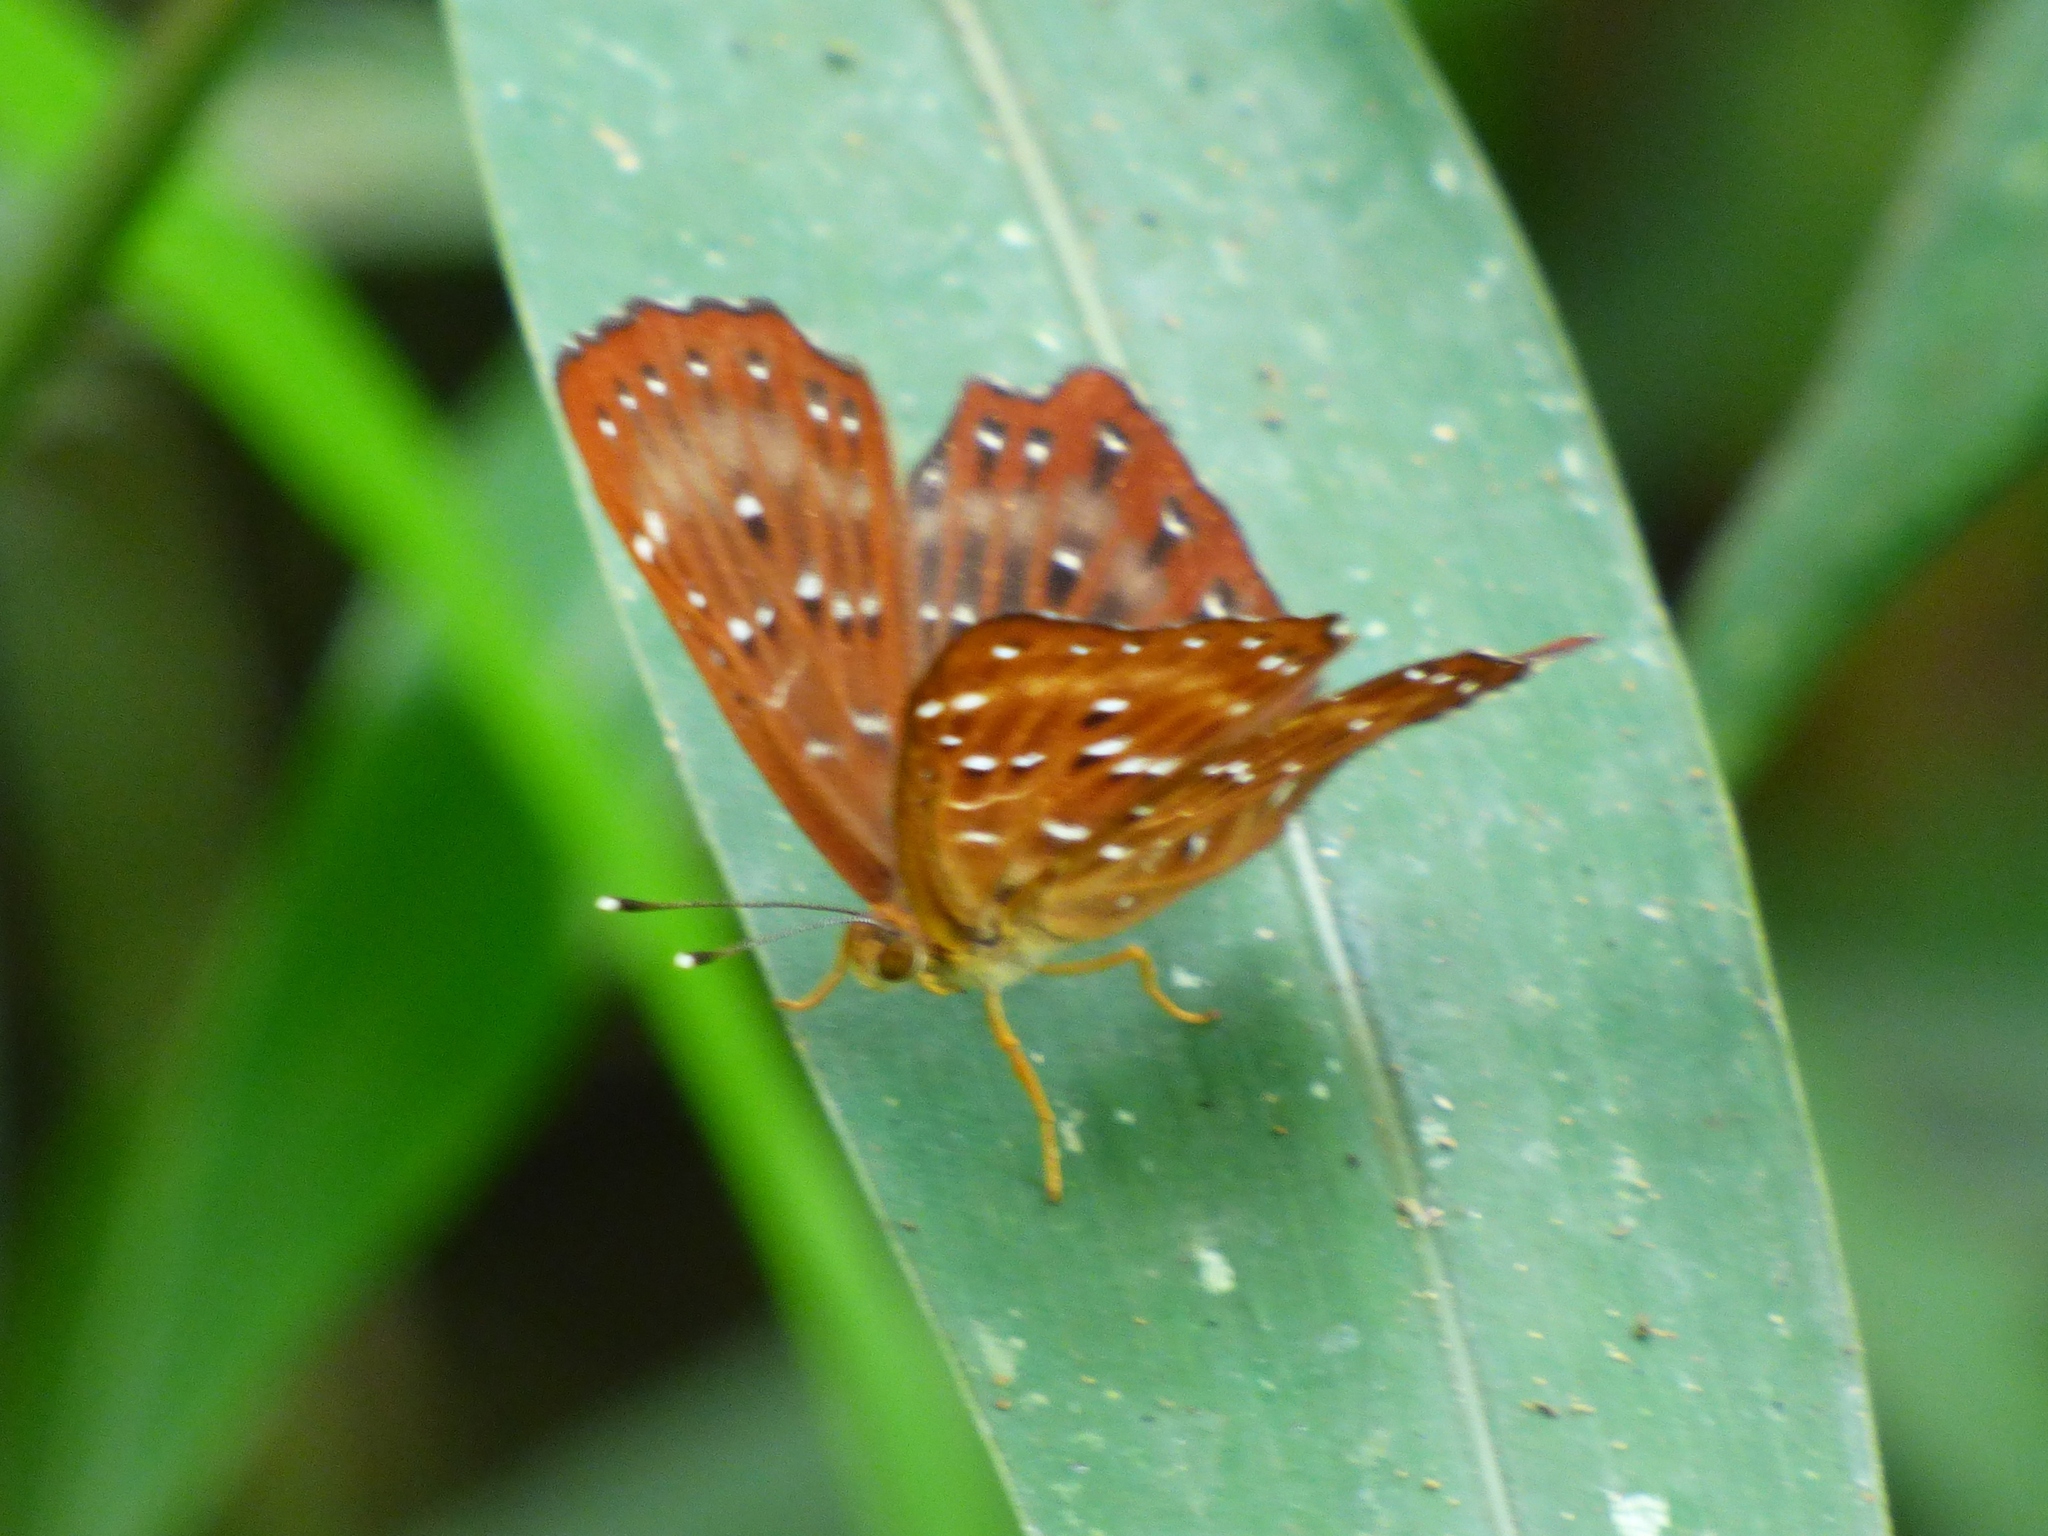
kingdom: Animalia
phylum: Arthropoda
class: Insecta
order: Lepidoptera
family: Riodinidae
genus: Zemeros
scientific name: Zemeros flegyas
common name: Punchinello
